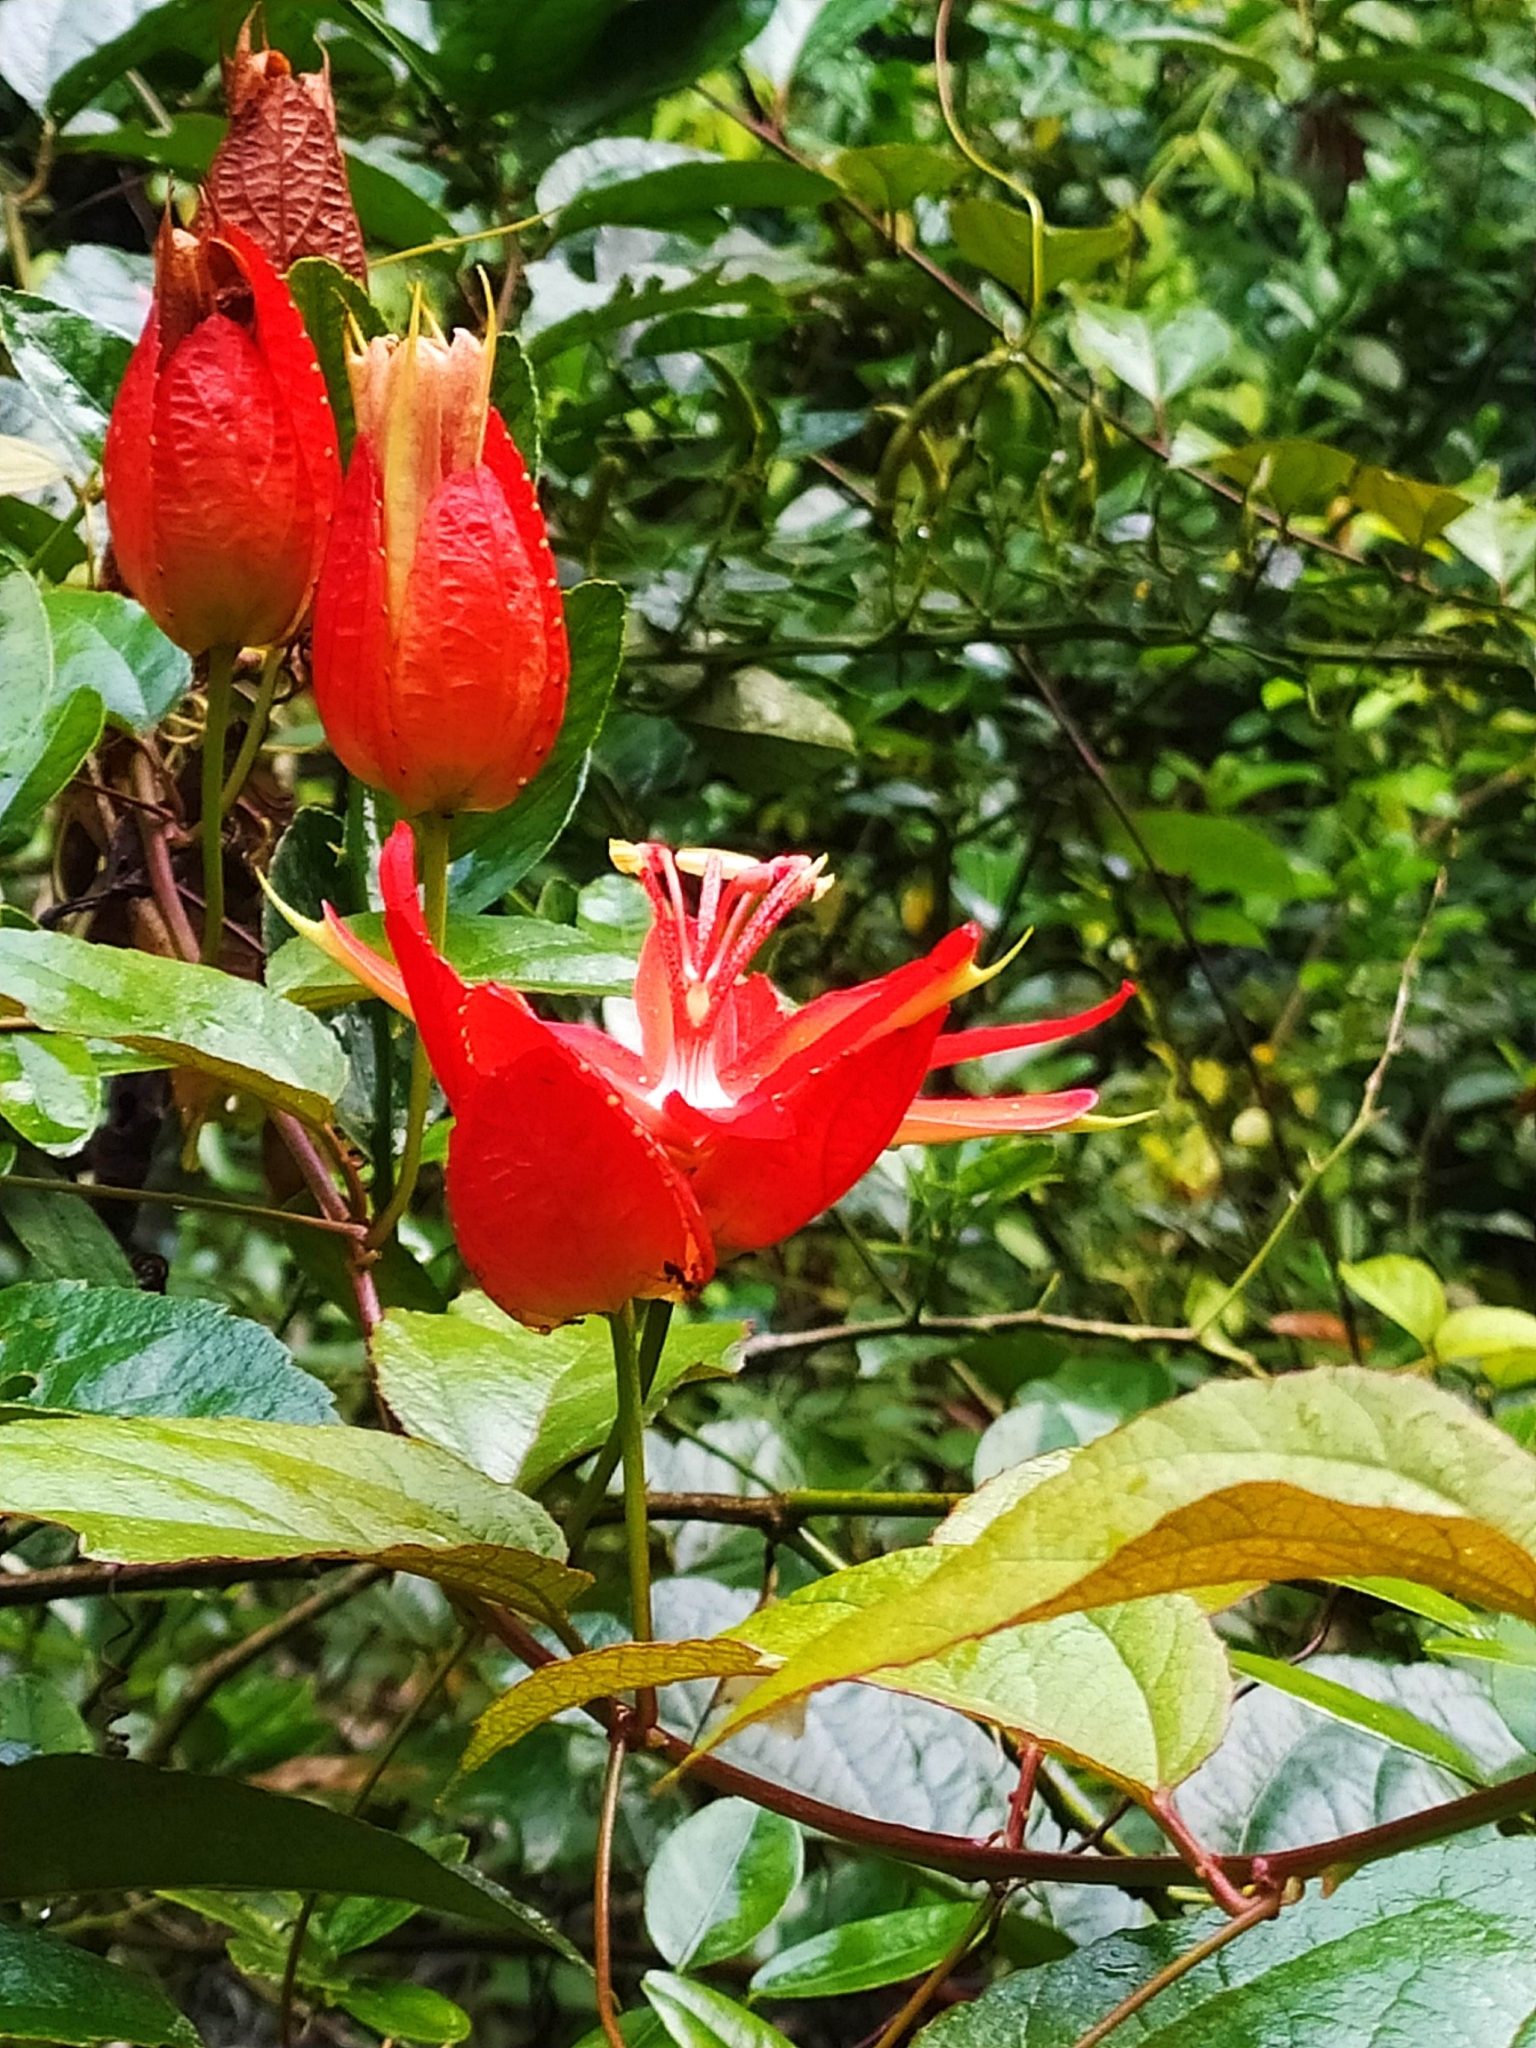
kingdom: Plantae
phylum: Tracheophyta
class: Magnoliopsida
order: Malpighiales
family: Passifloraceae
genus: Passiflora
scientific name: Passiflora coccinea
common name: Scarlet passionflower
